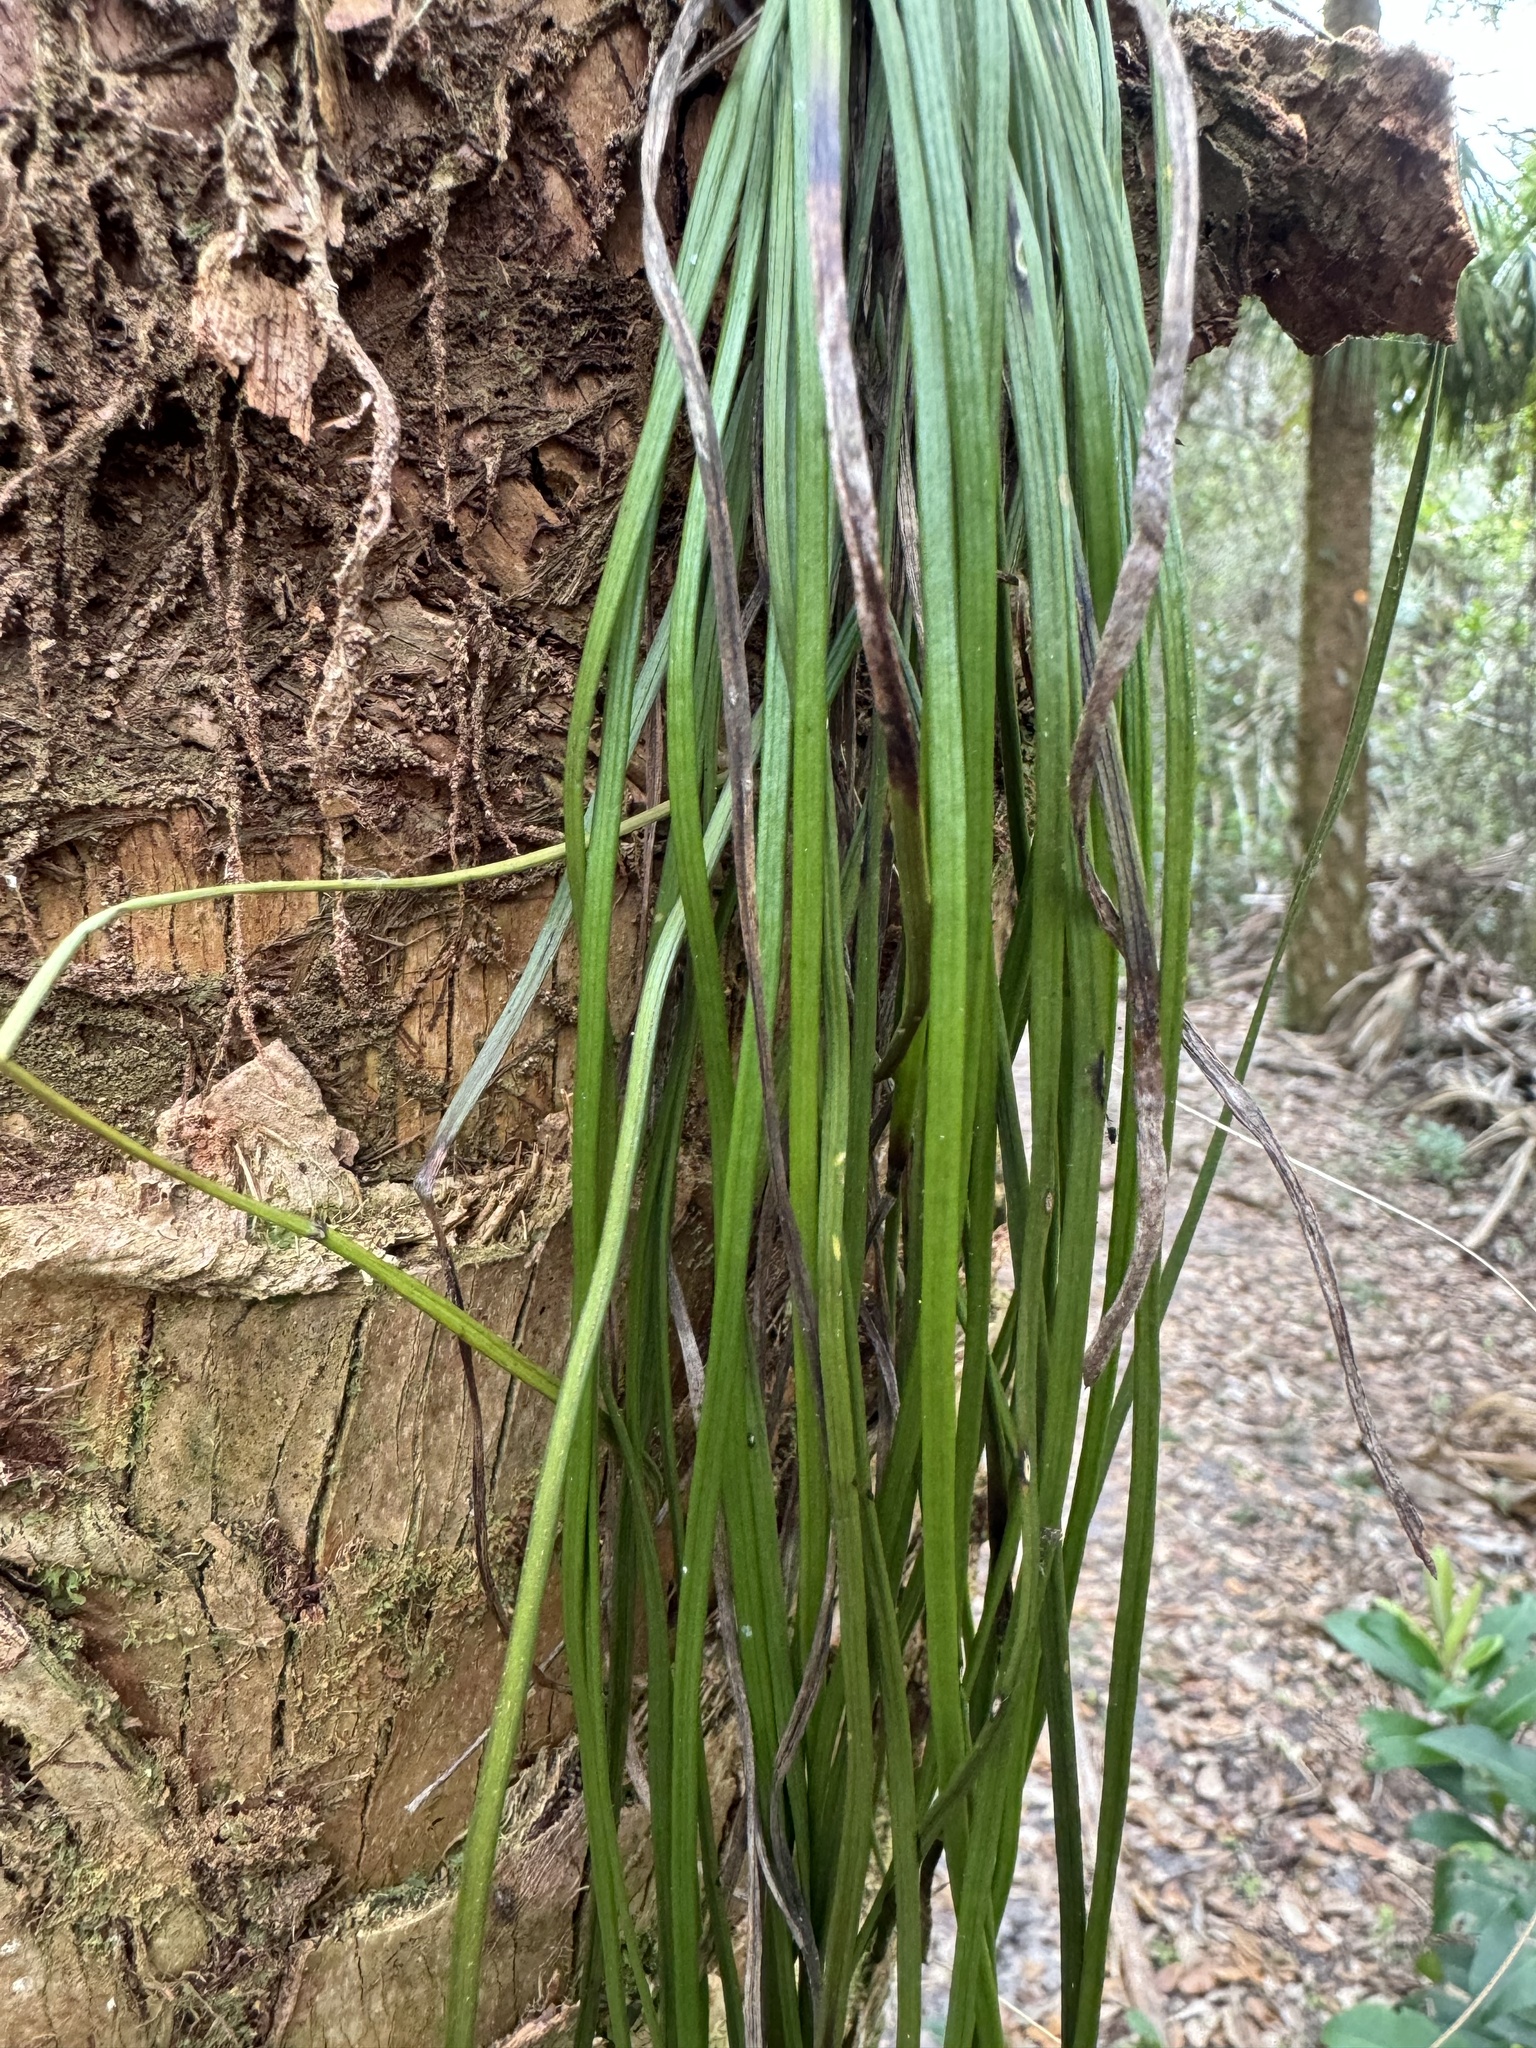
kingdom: Plantae
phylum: Tracheophyta
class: Polypodiopsida
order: Polypodiales
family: Pteridaceae
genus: Vittaria
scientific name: Vittaria lineata
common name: Shoestring fern
